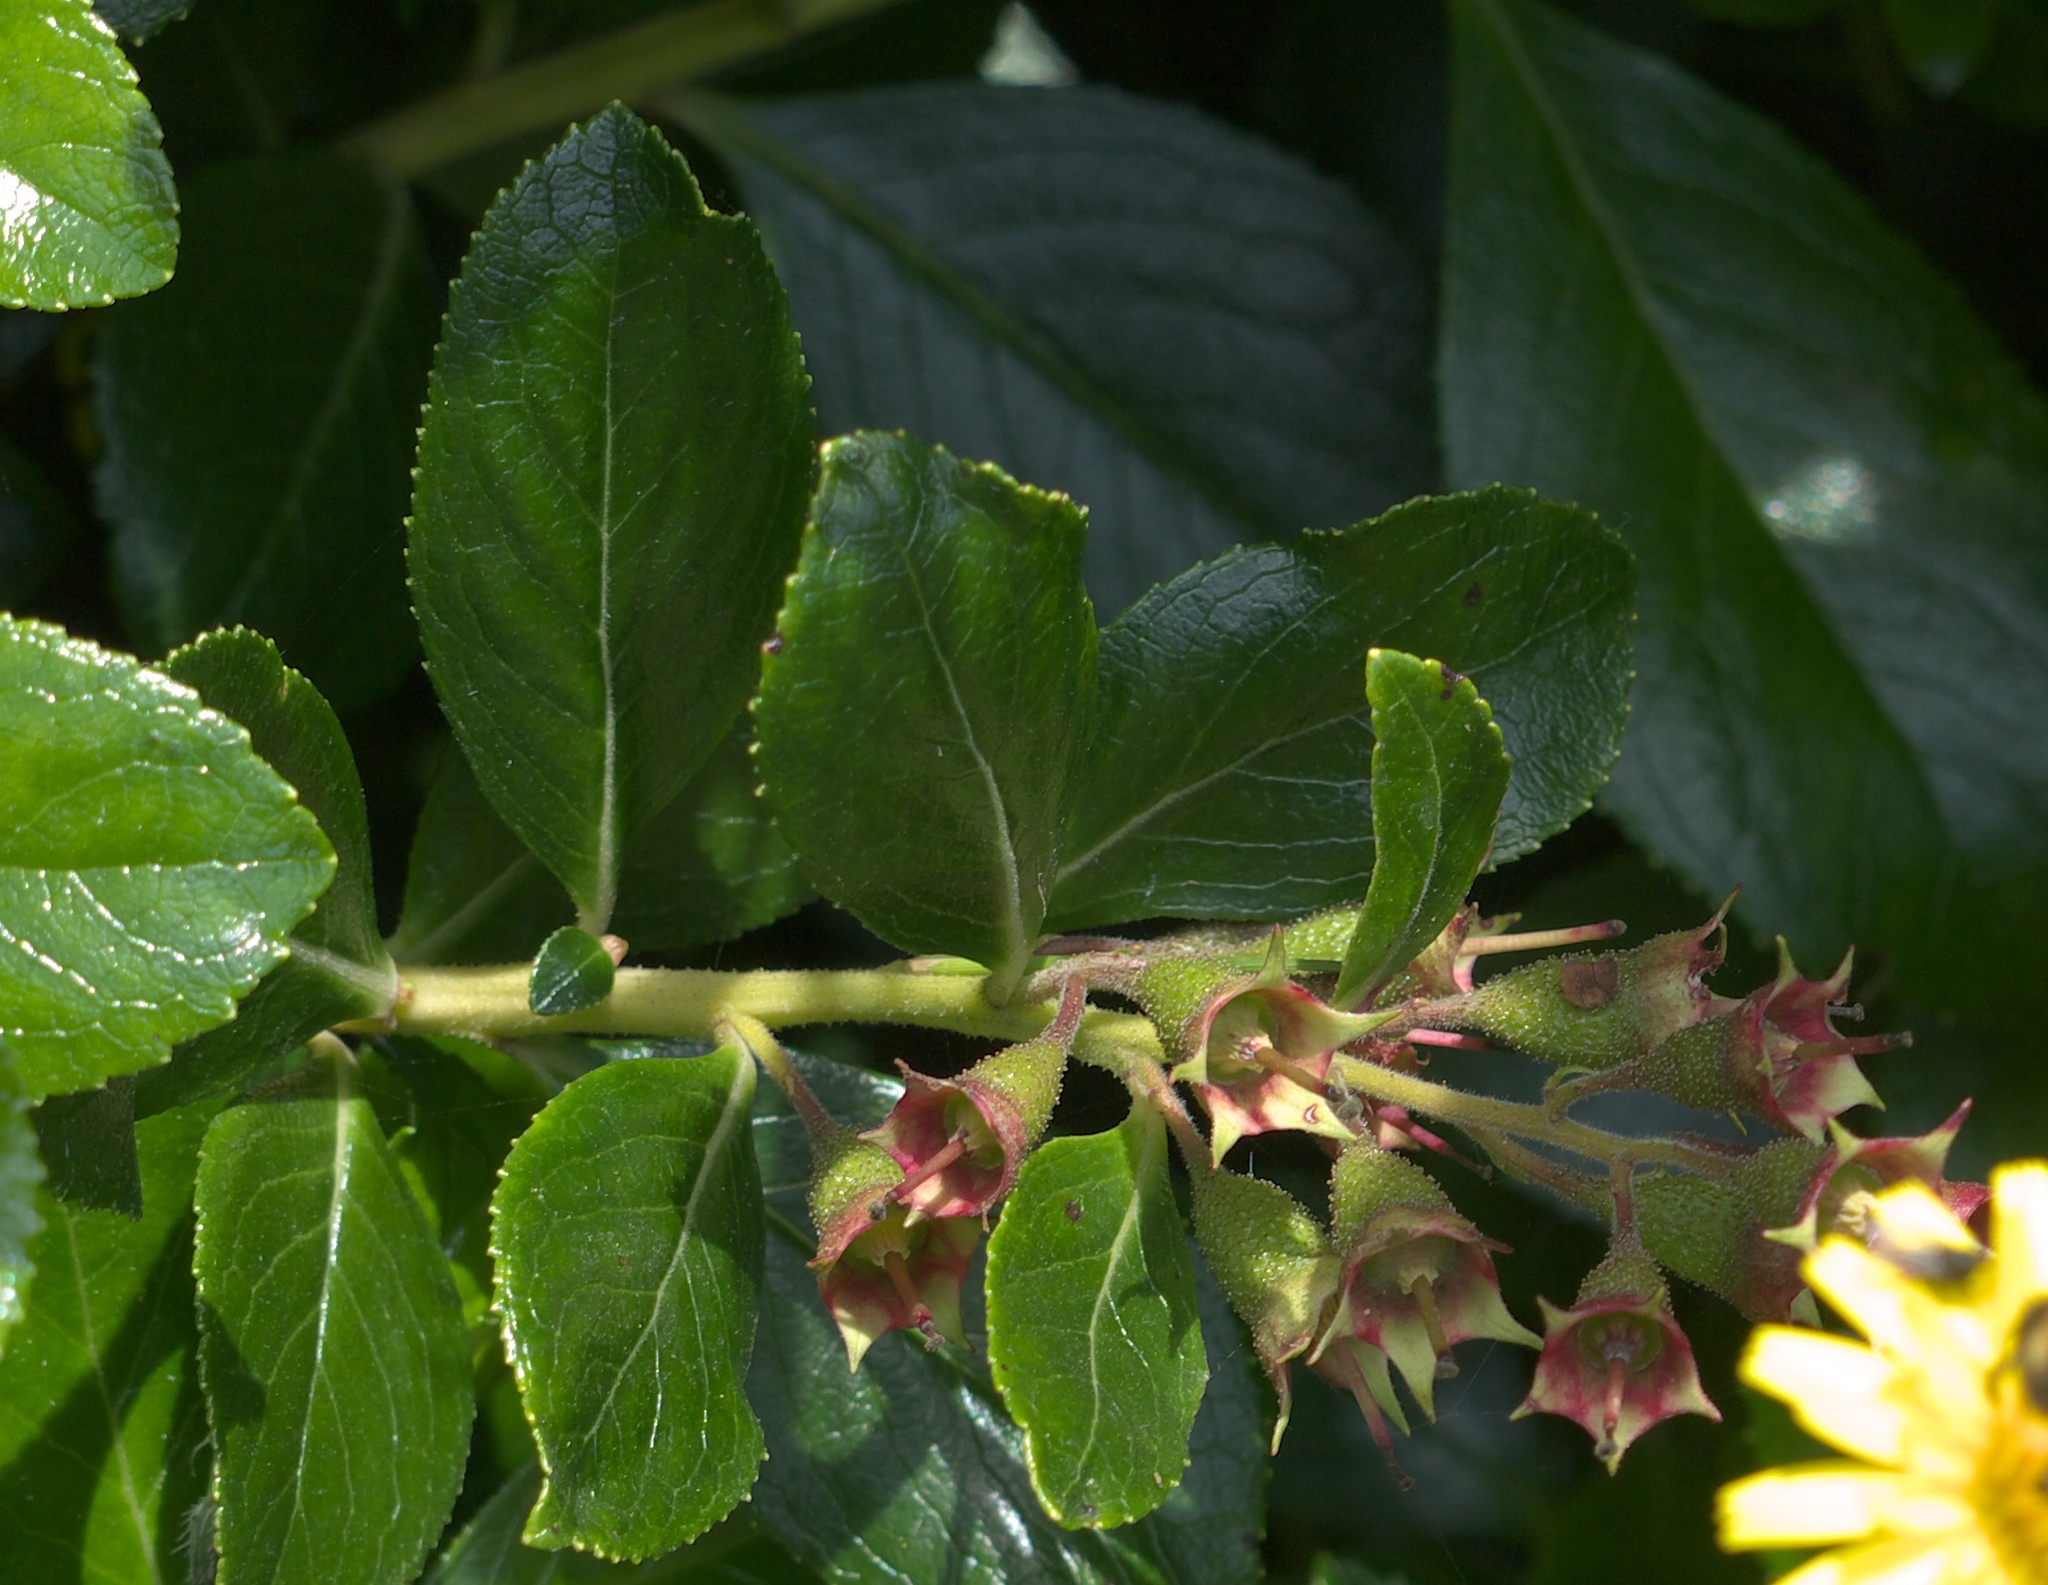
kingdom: Plantae
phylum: Tracheophyta
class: Magnoliopsida
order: Escalloniales
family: Escalloniaceae
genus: Escallonia
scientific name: Escallonia rubra
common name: Redclaws
